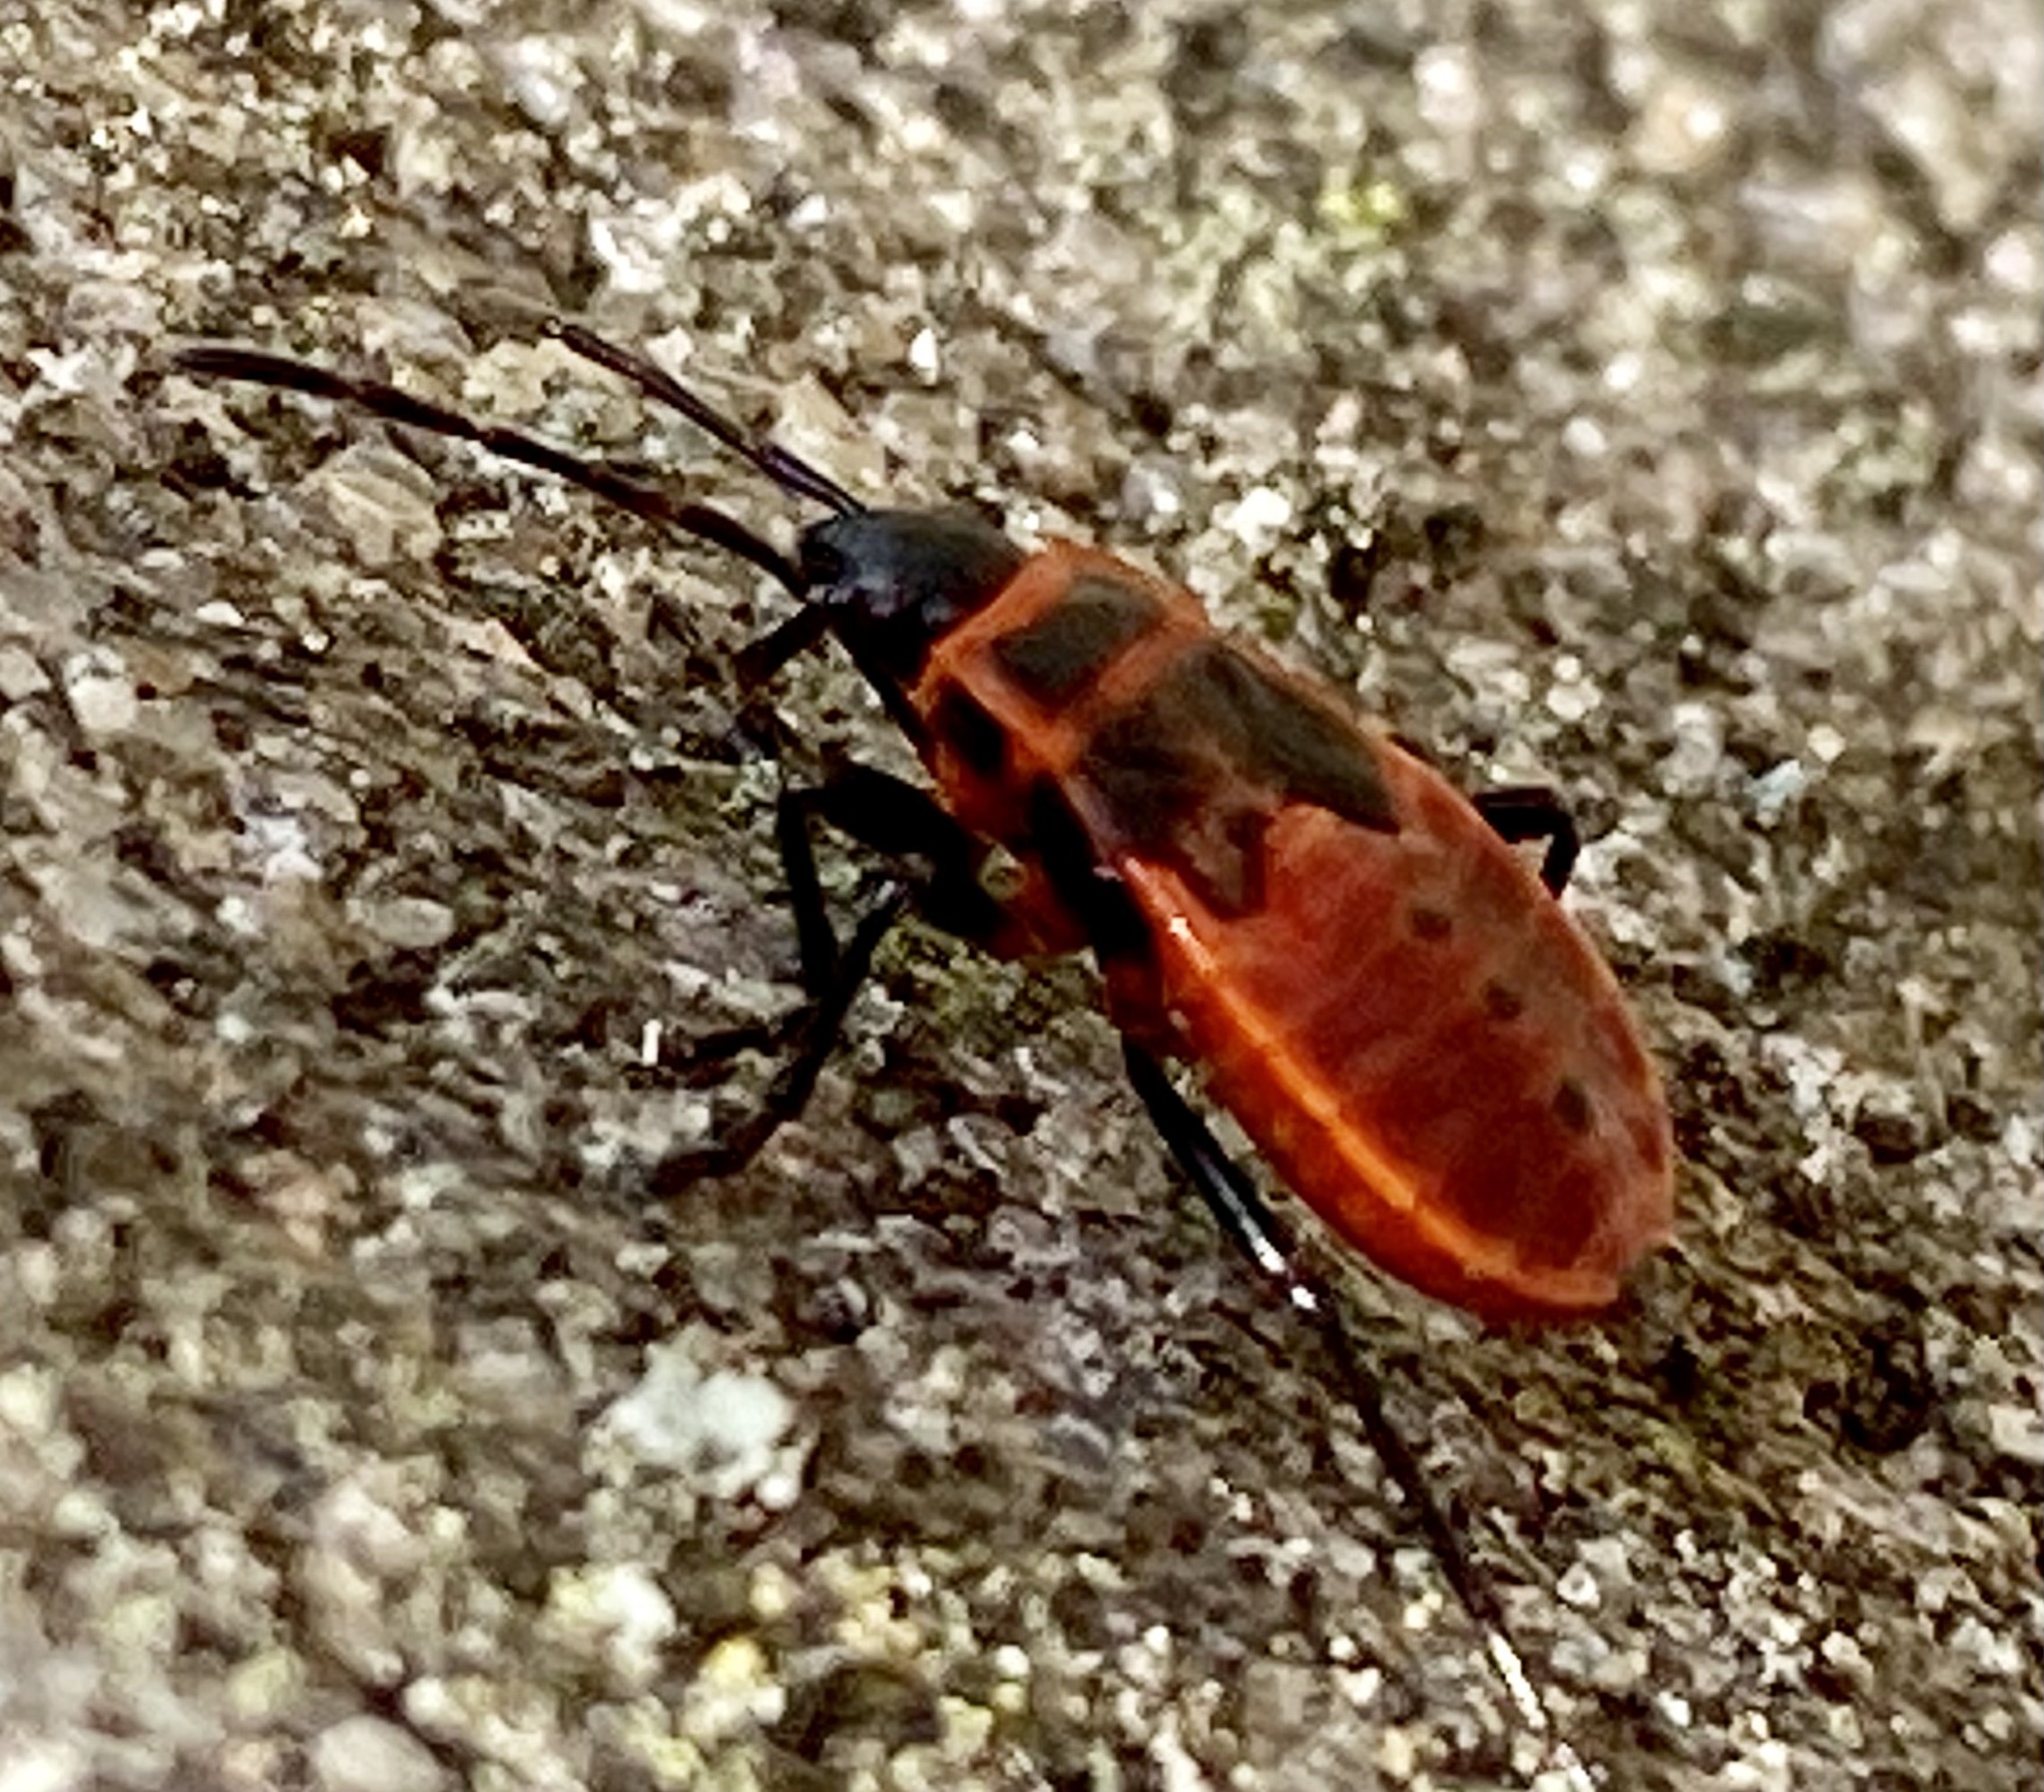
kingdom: Animalia
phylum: Arthropoda
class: Insecta
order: Hemiptera
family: Pyrrhocoridae
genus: Pyrrhocoris
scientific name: Pyrrhocoris apterus
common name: Firebug
